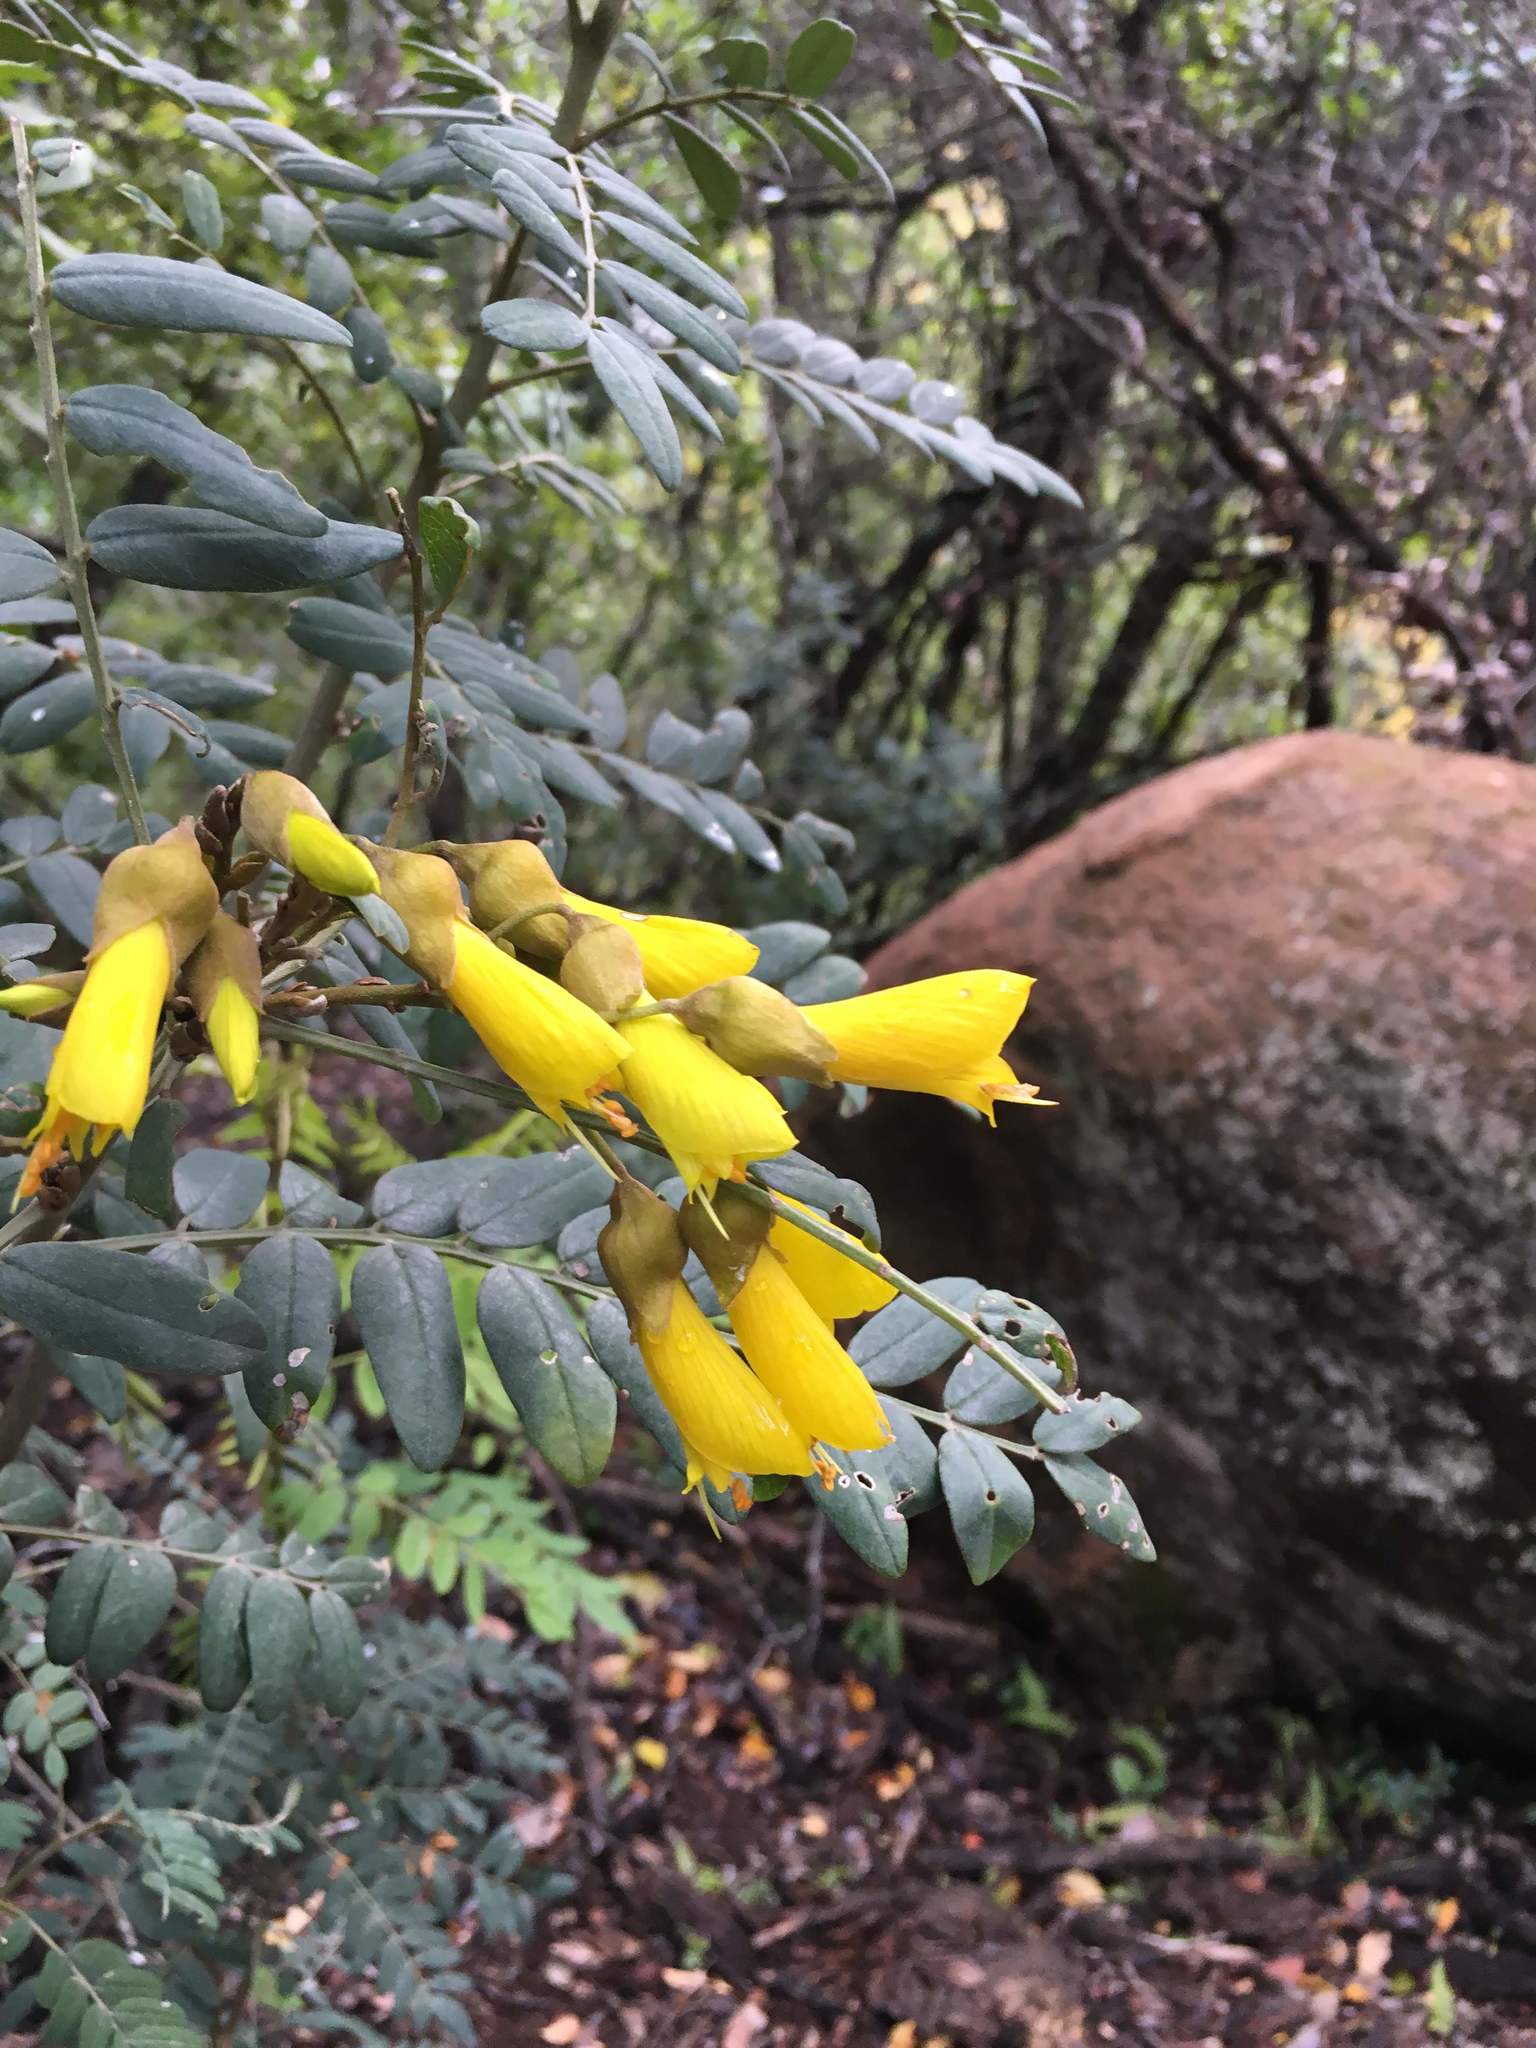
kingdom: Plantae
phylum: Tracheophyta
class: Magnoliopsida
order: Fabales
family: Fabaceae
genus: Sophora
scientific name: Sophora macrocarpa
